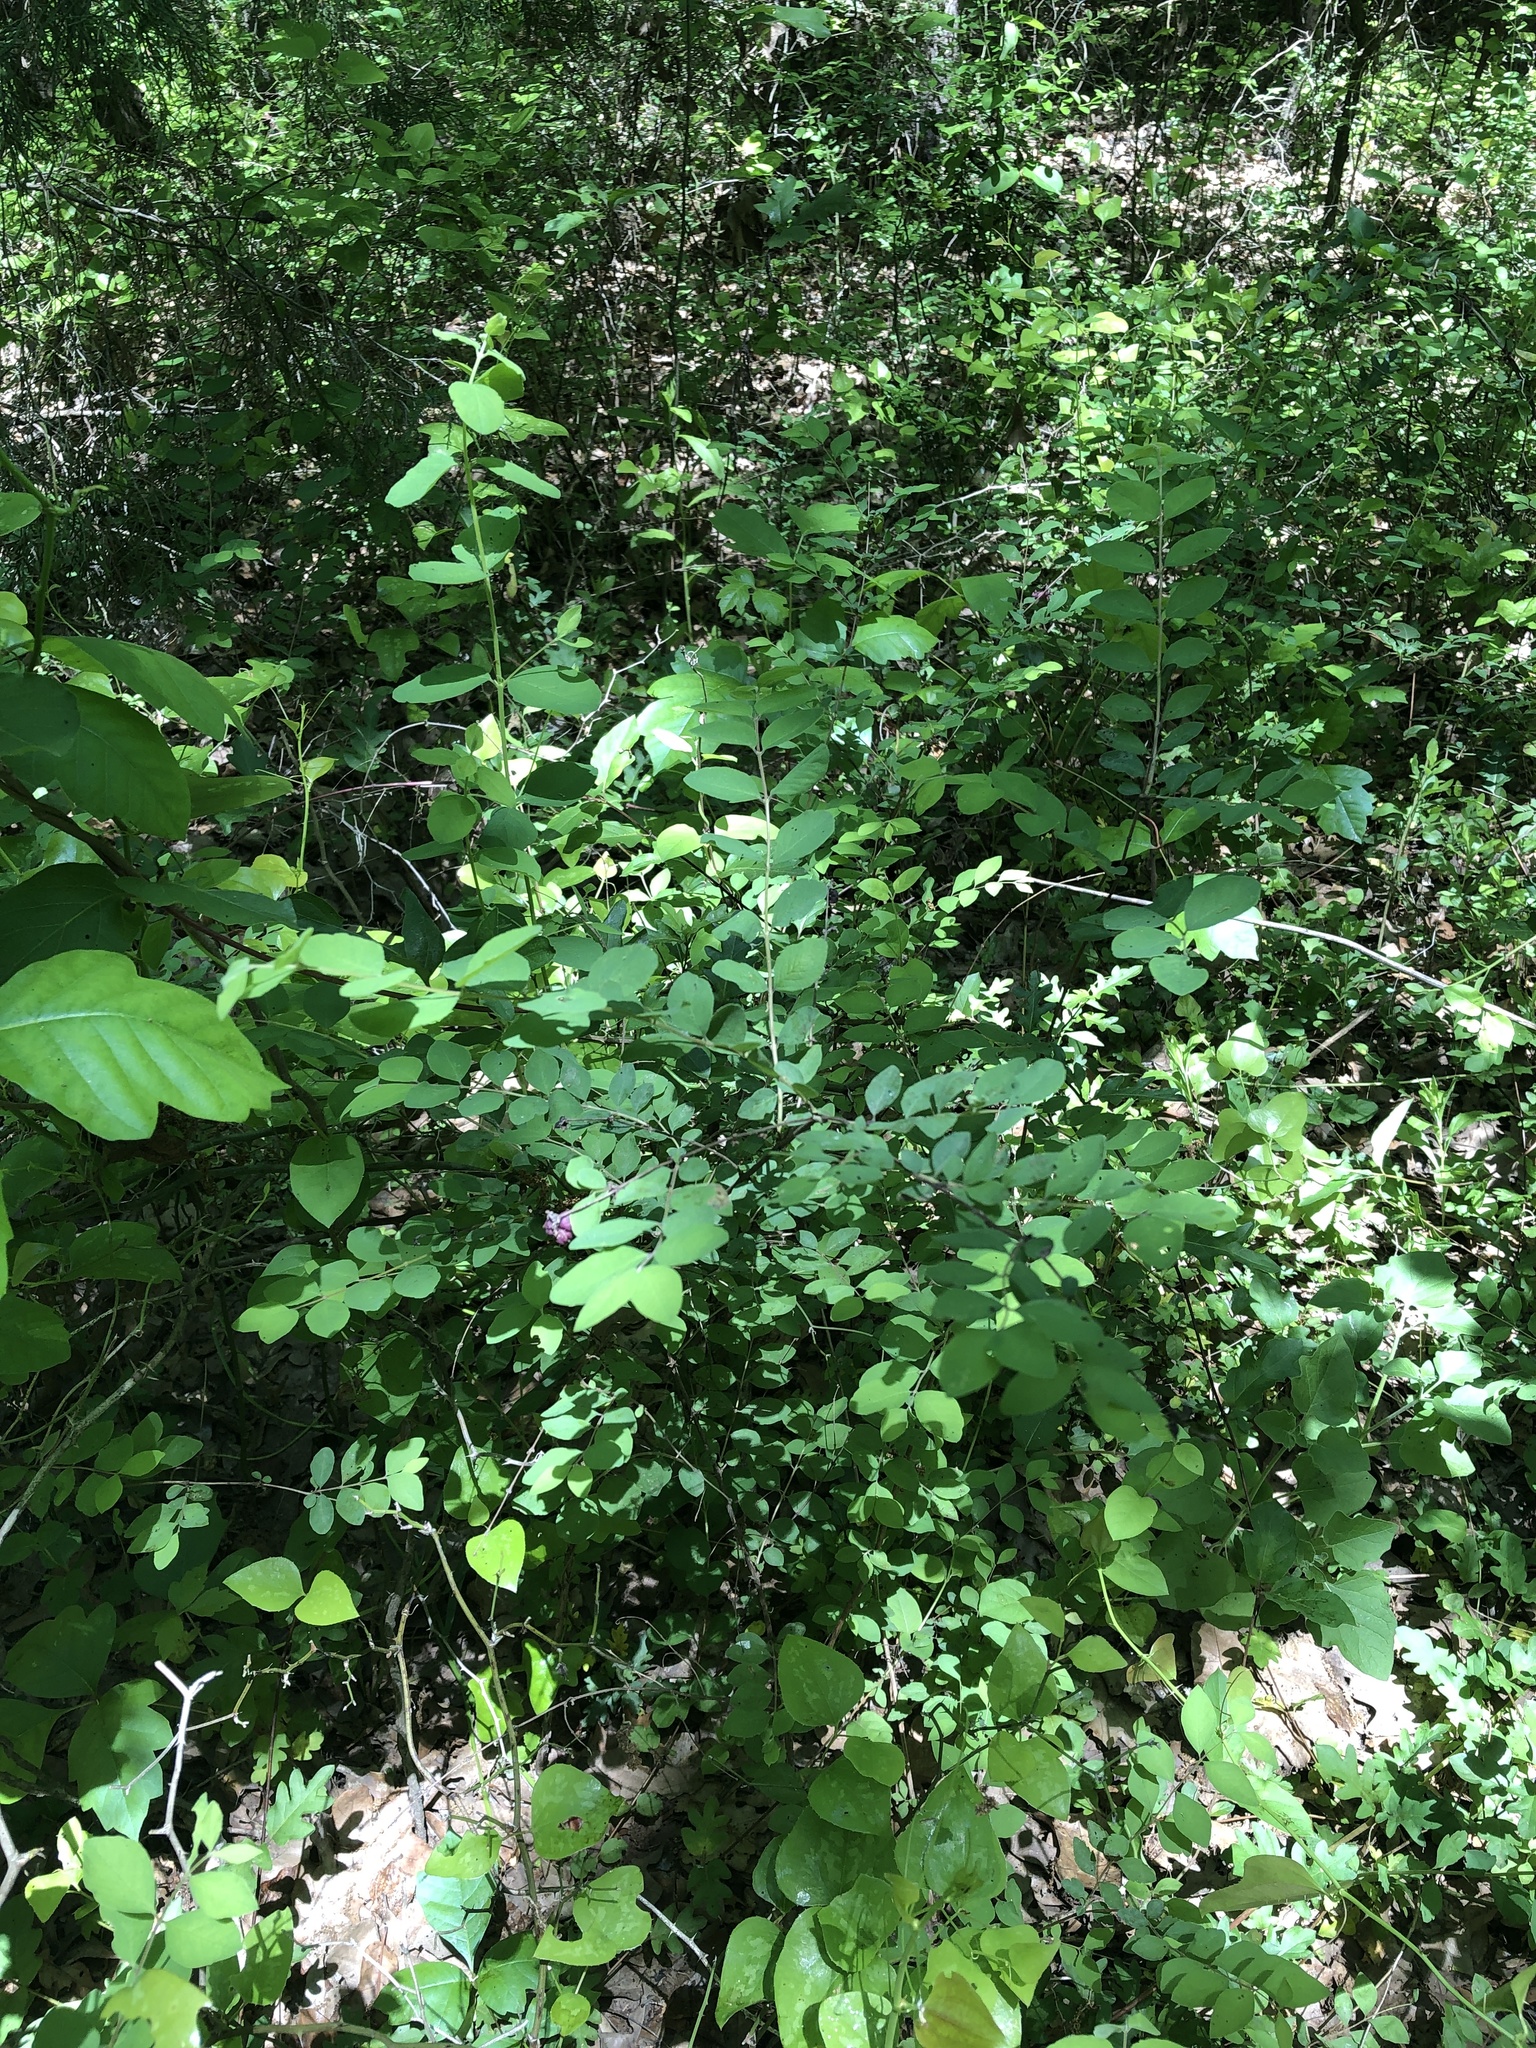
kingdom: Plantae
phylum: Tracheophyta
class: Magnoliopsida
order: Dipsacales
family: Caprifoliaceae
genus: Symphoricarpos
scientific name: Symphoricarpos orbiculatus
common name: Coralberry
